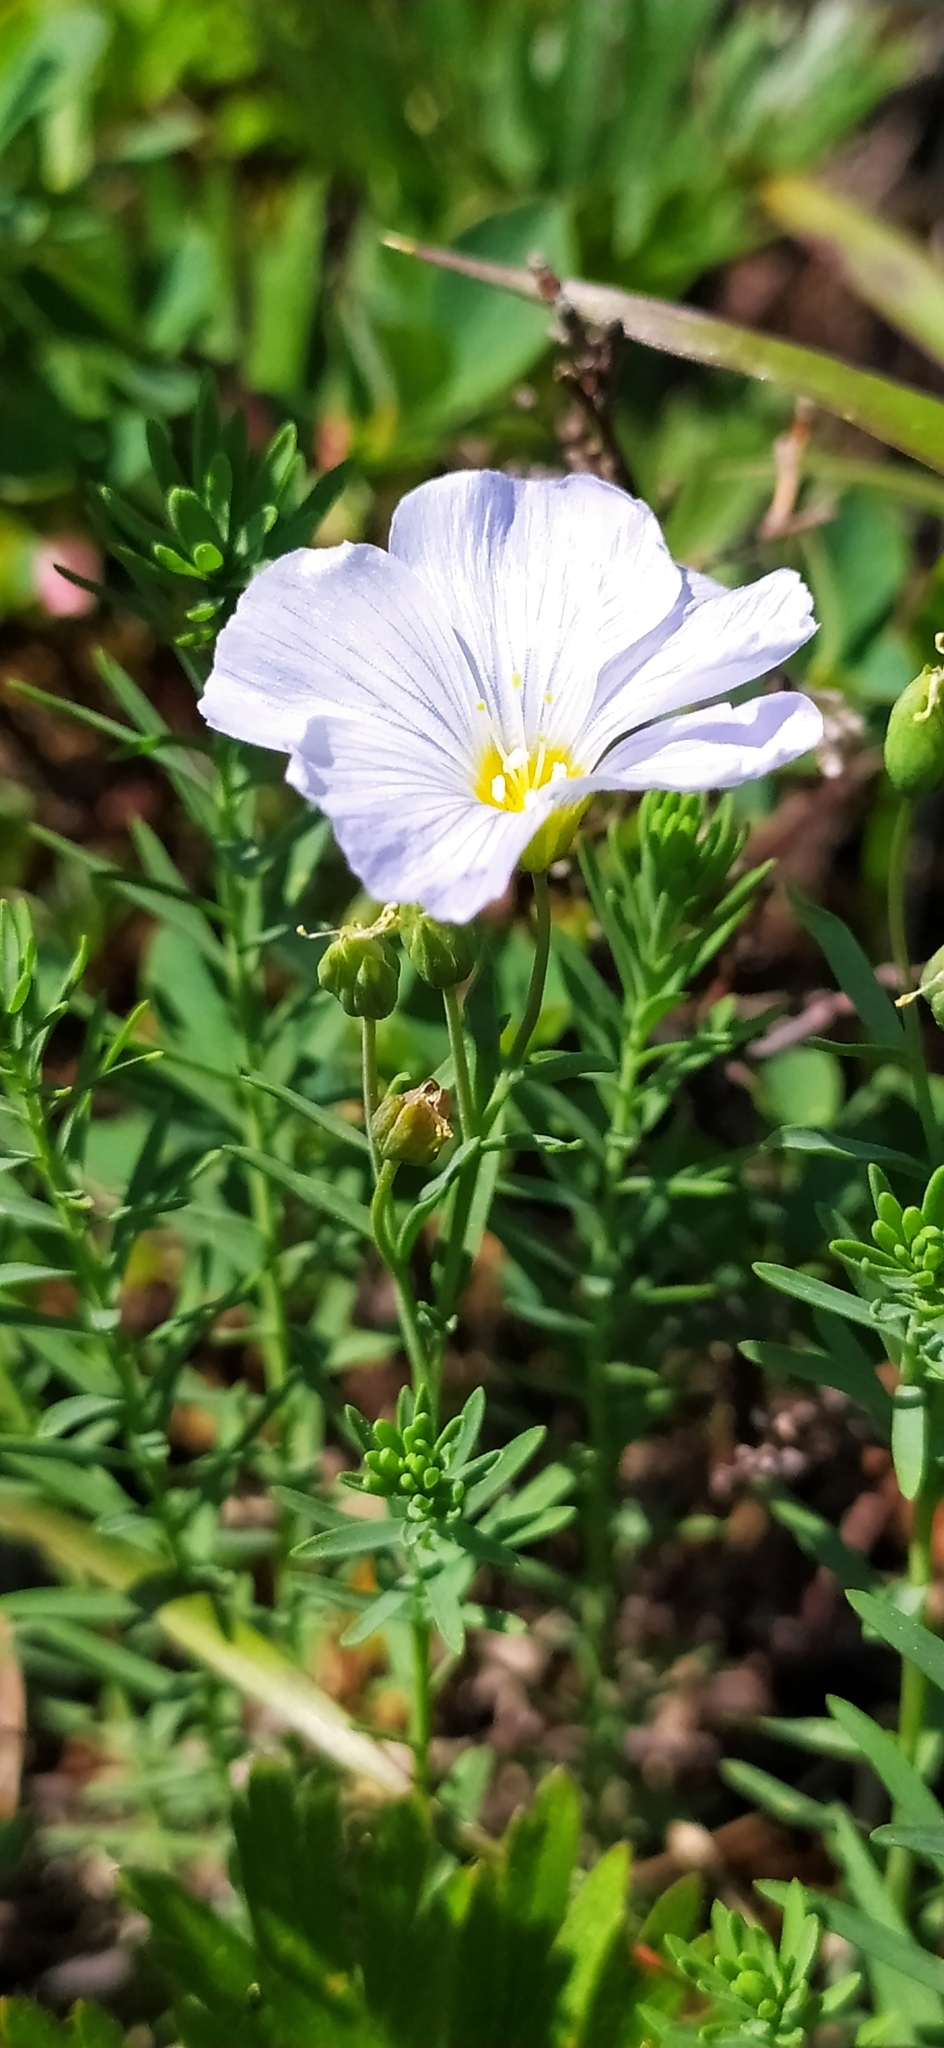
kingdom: Plantae
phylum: Tracheophyta
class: Magnoliopsida
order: Malpighiales
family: Linaceae
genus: Linum
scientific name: Linum komarovii
